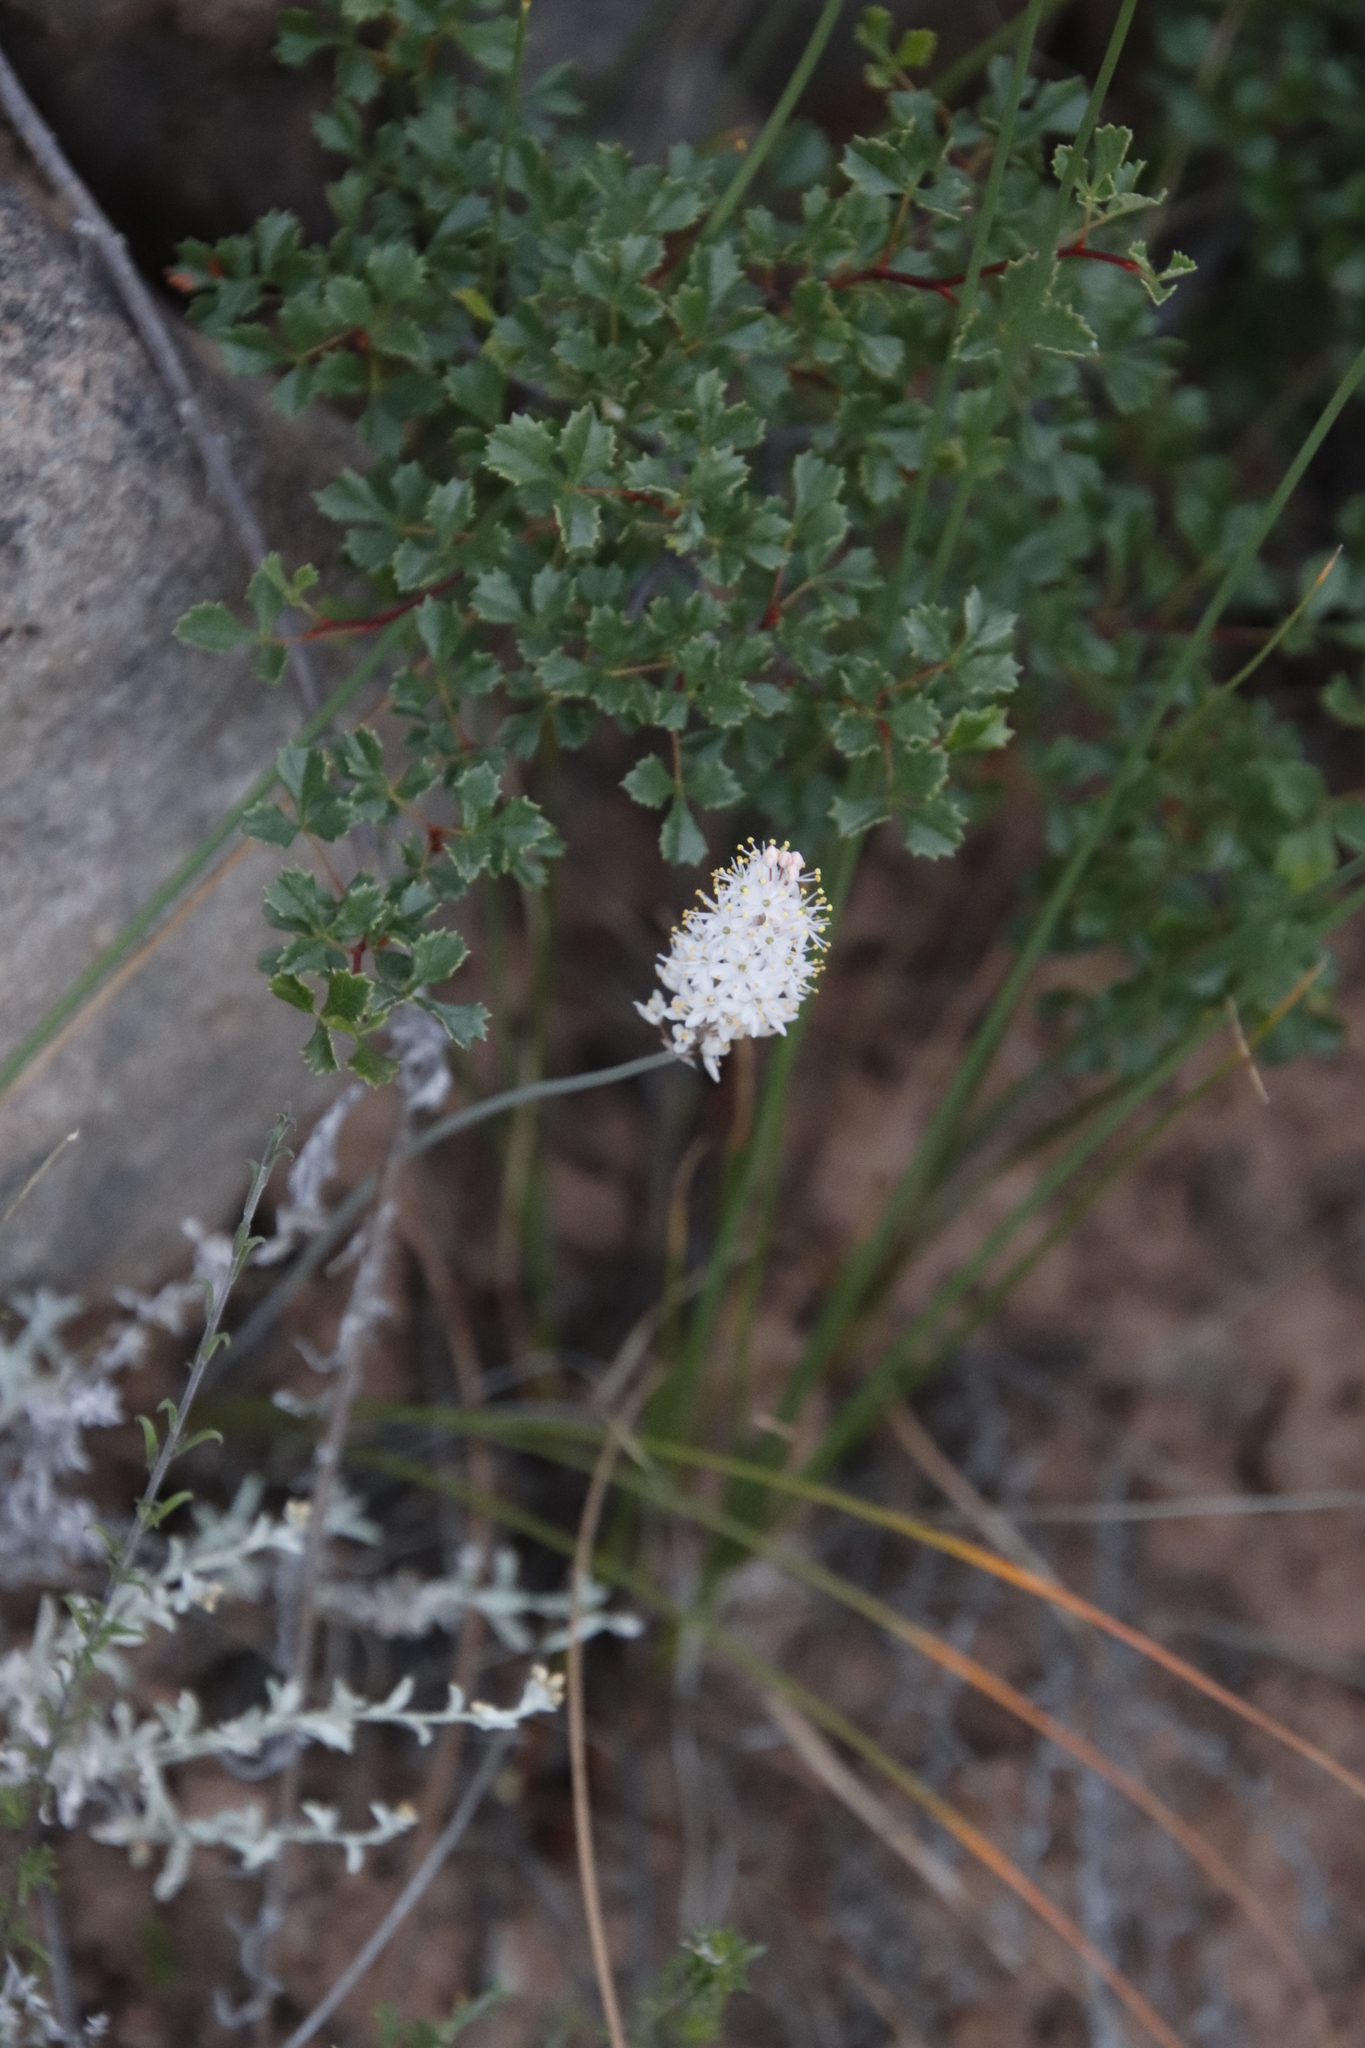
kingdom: Plantae
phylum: Tracheophyta
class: Magnoliopsida
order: Sapindales
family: Anacardiaceae
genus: Searsia
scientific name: Searsia dissecta
